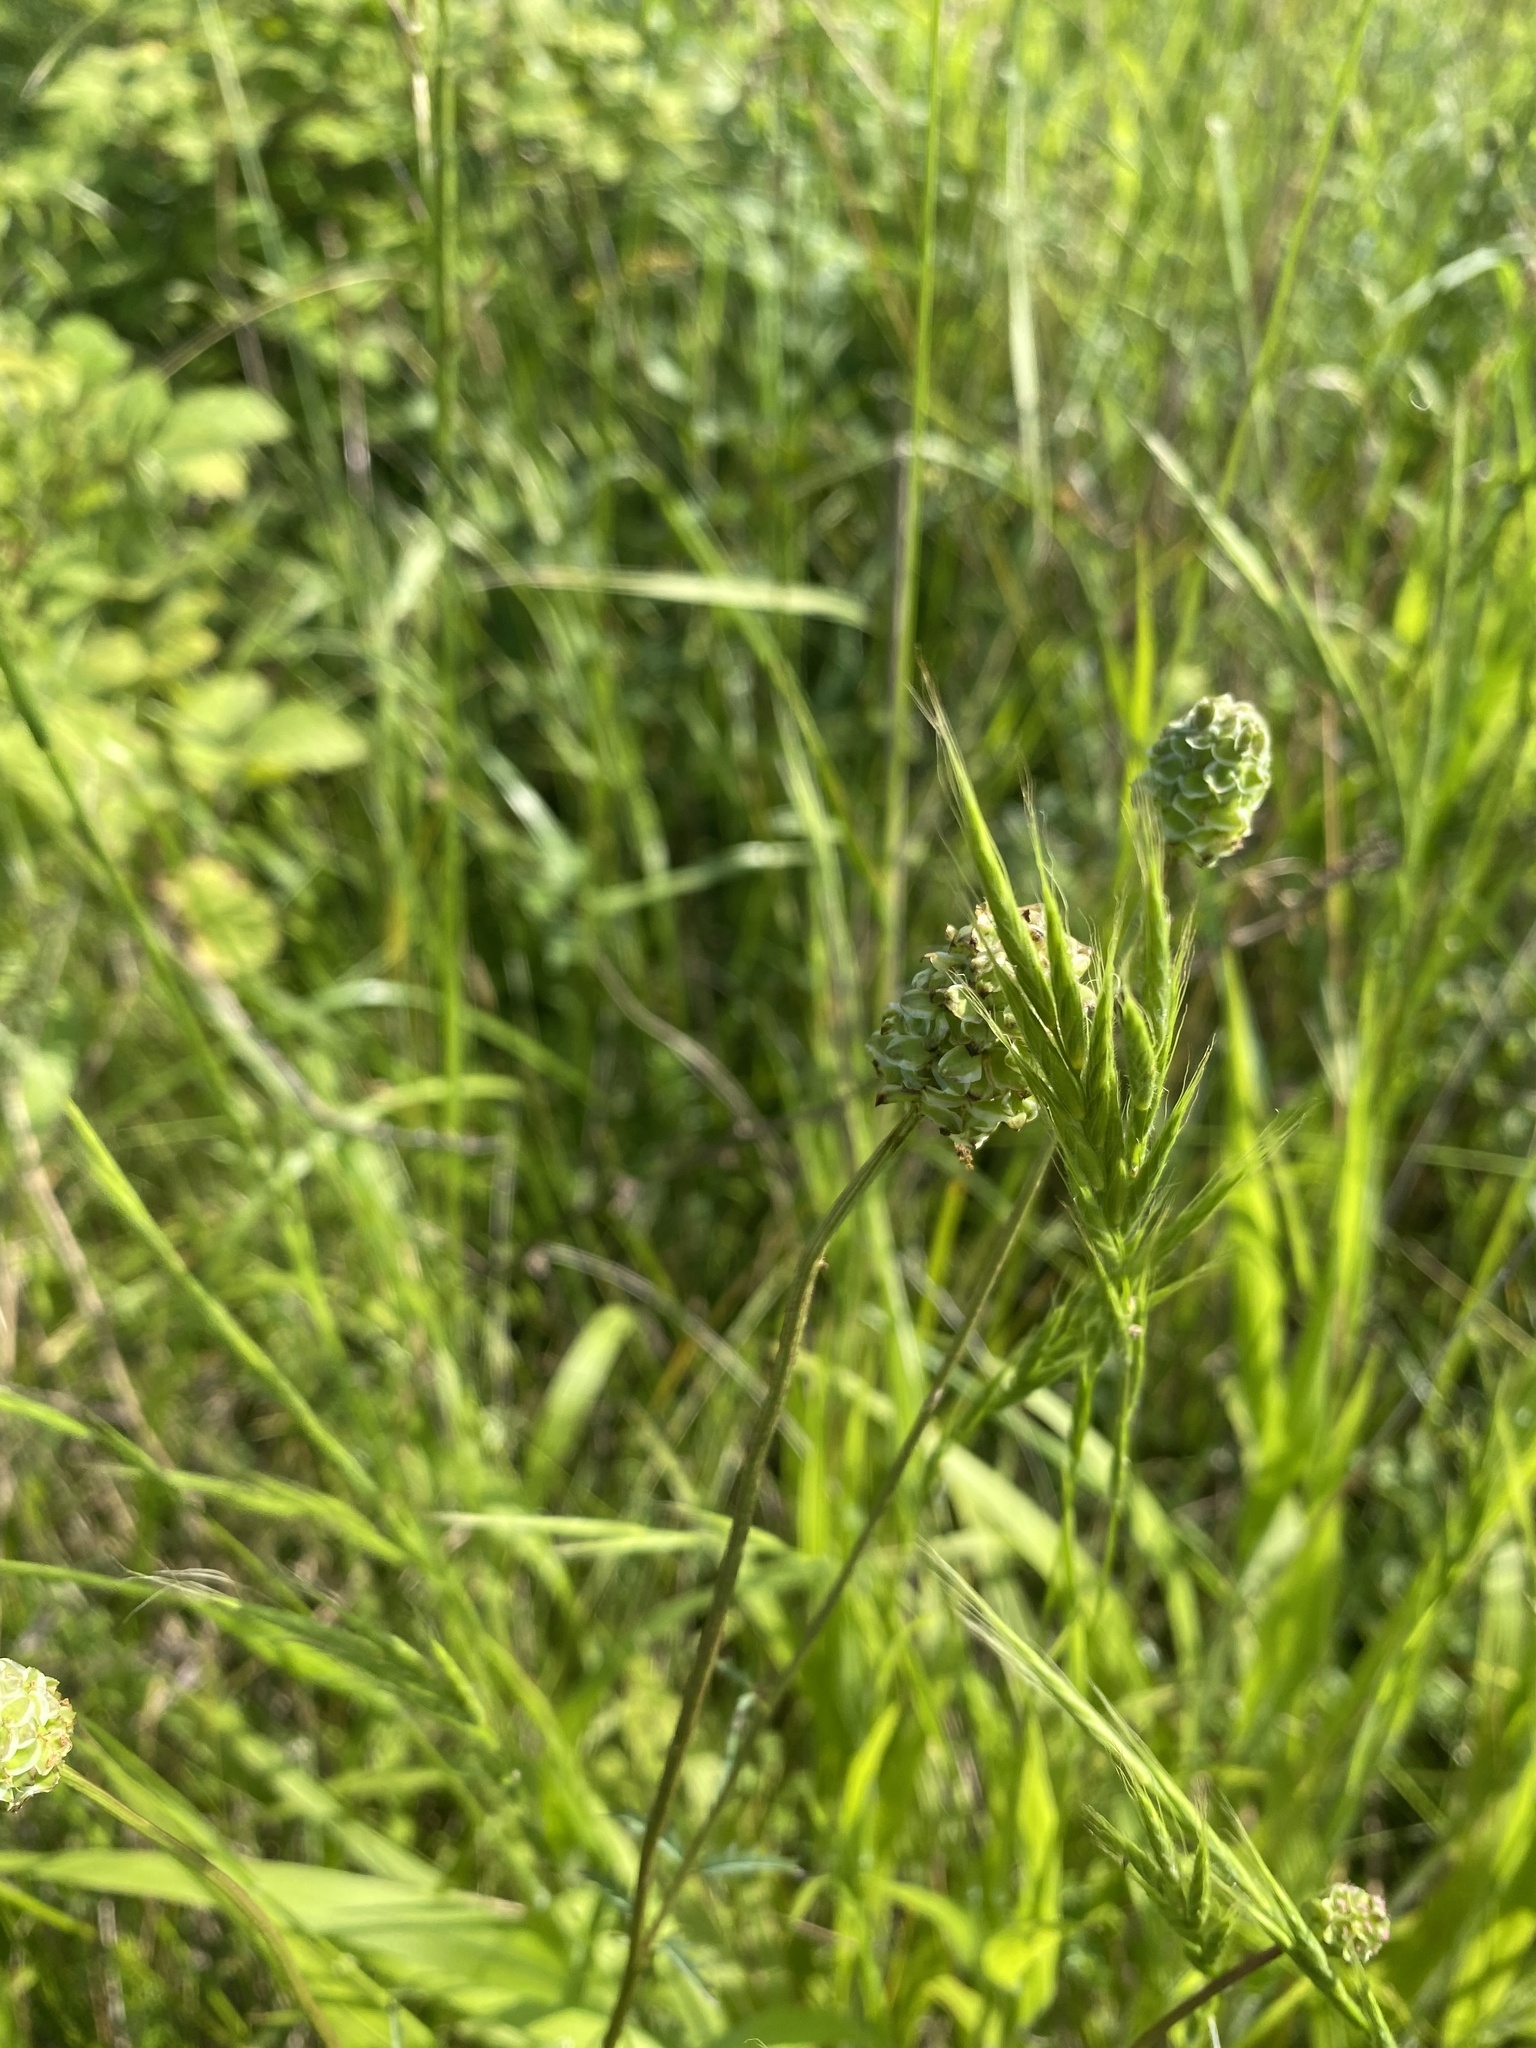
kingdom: Plantae
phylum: Tracheophyta
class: Magnoliopsida
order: Rosales
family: Rosaceae
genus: Poterium
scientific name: Poterium sanguisorba
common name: Salad burnet
